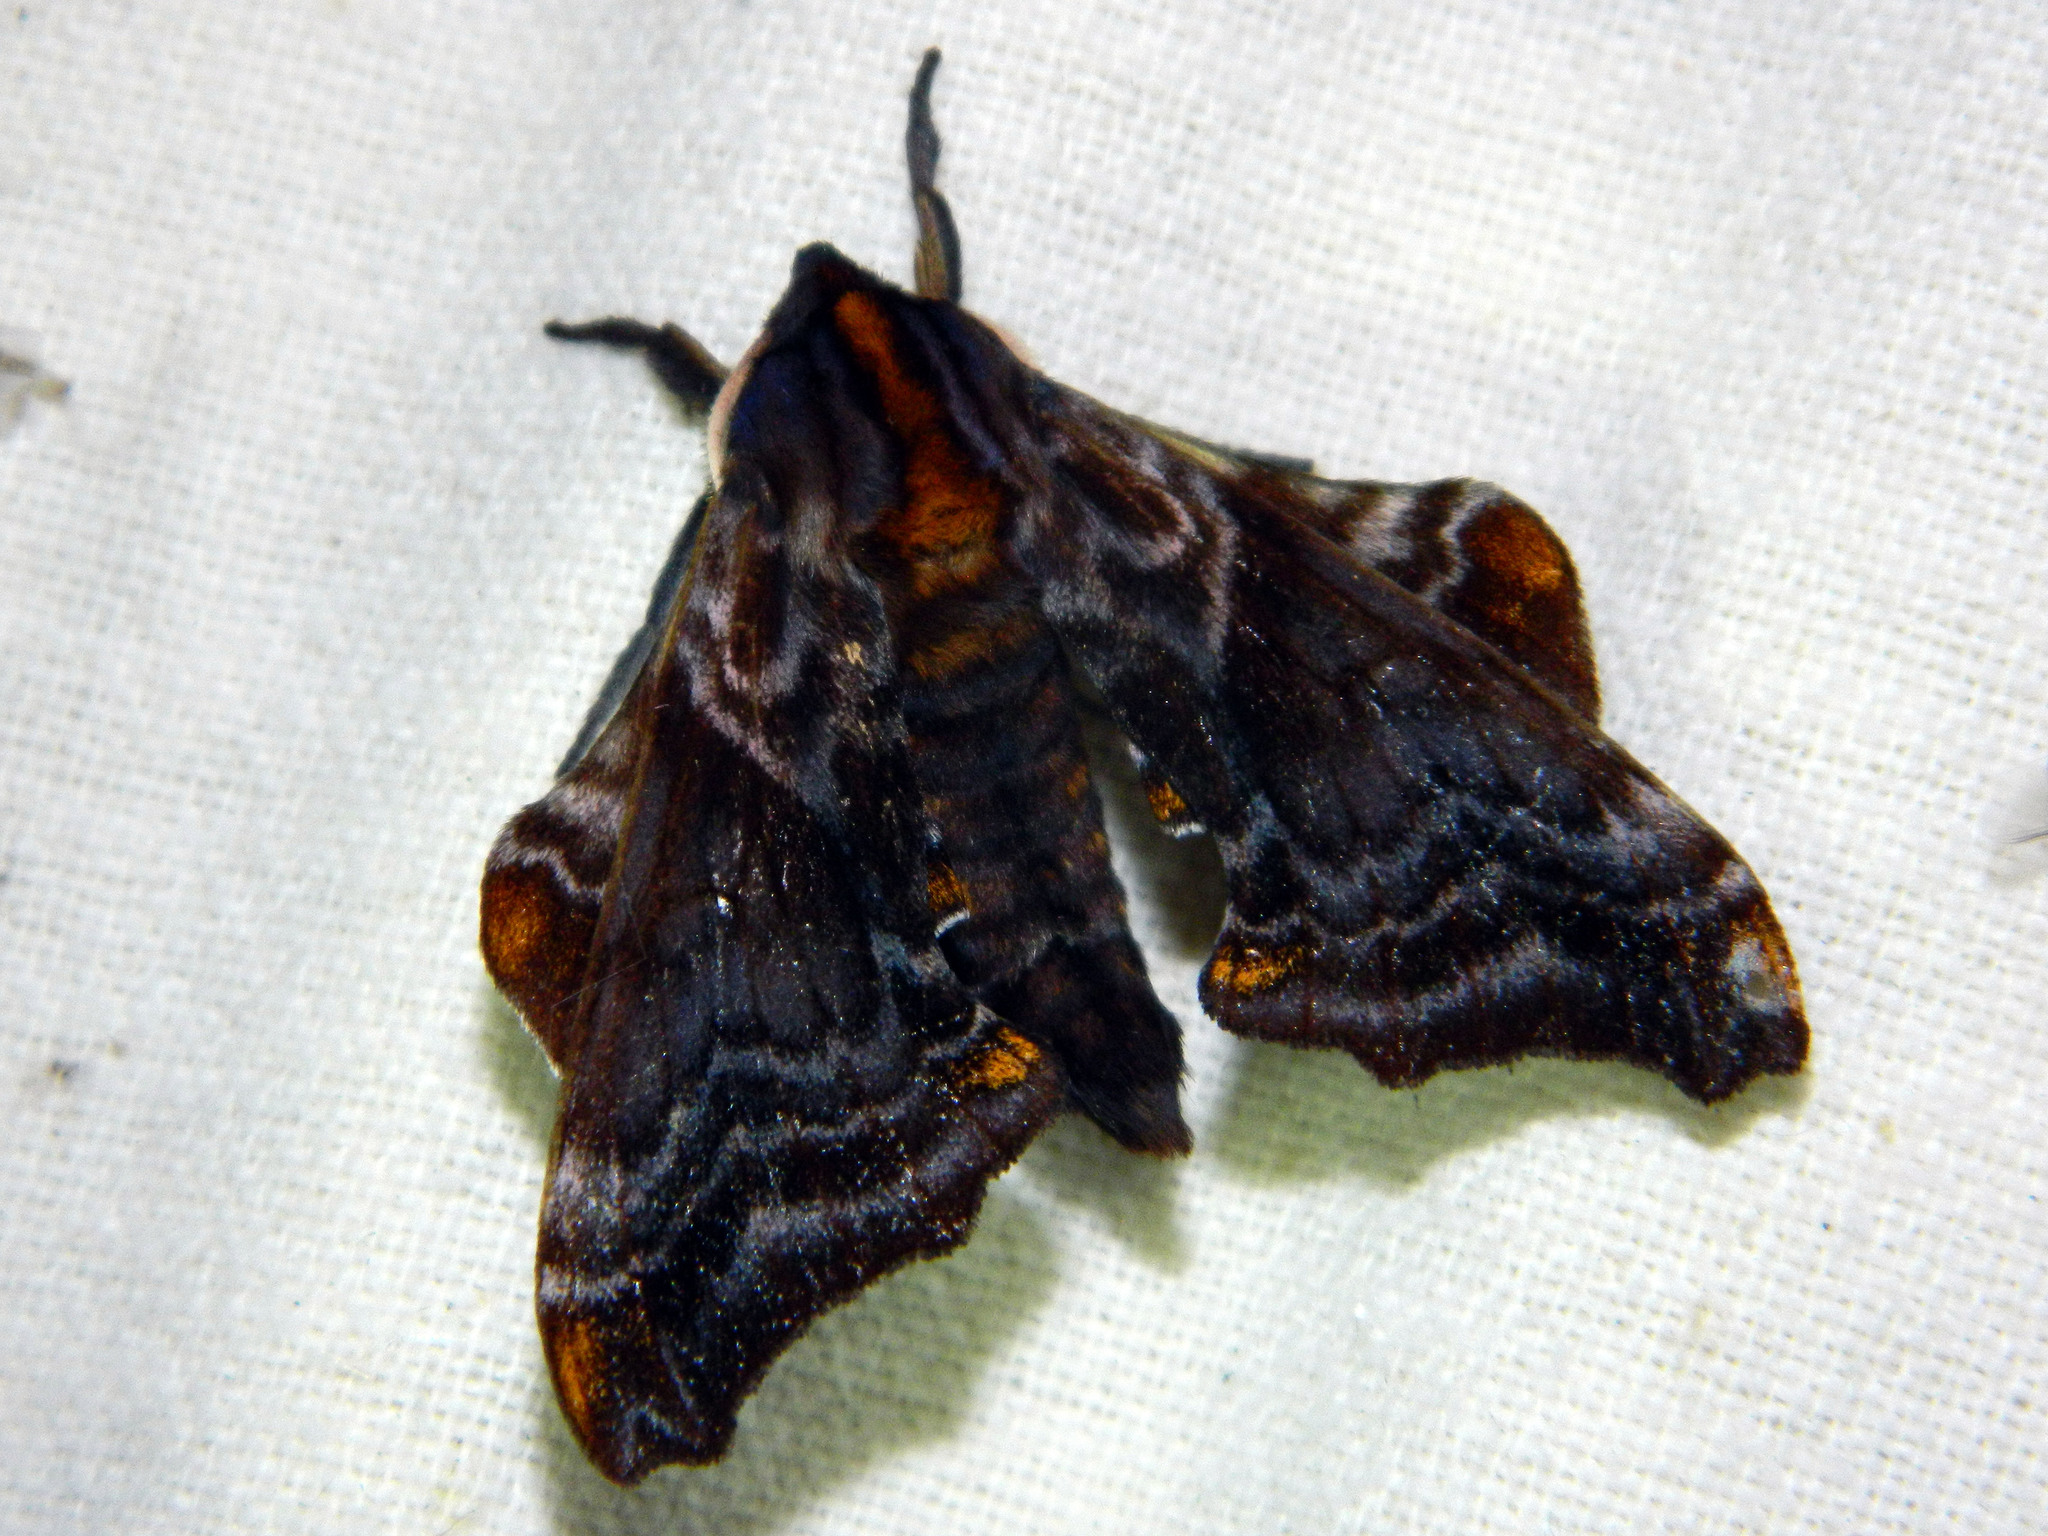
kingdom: Animalia
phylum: Arthropoda
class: Insecta
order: Lepidoptera
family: Sphingidae
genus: Paonias
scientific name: Paonias myops
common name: Small-eyed sphinx
